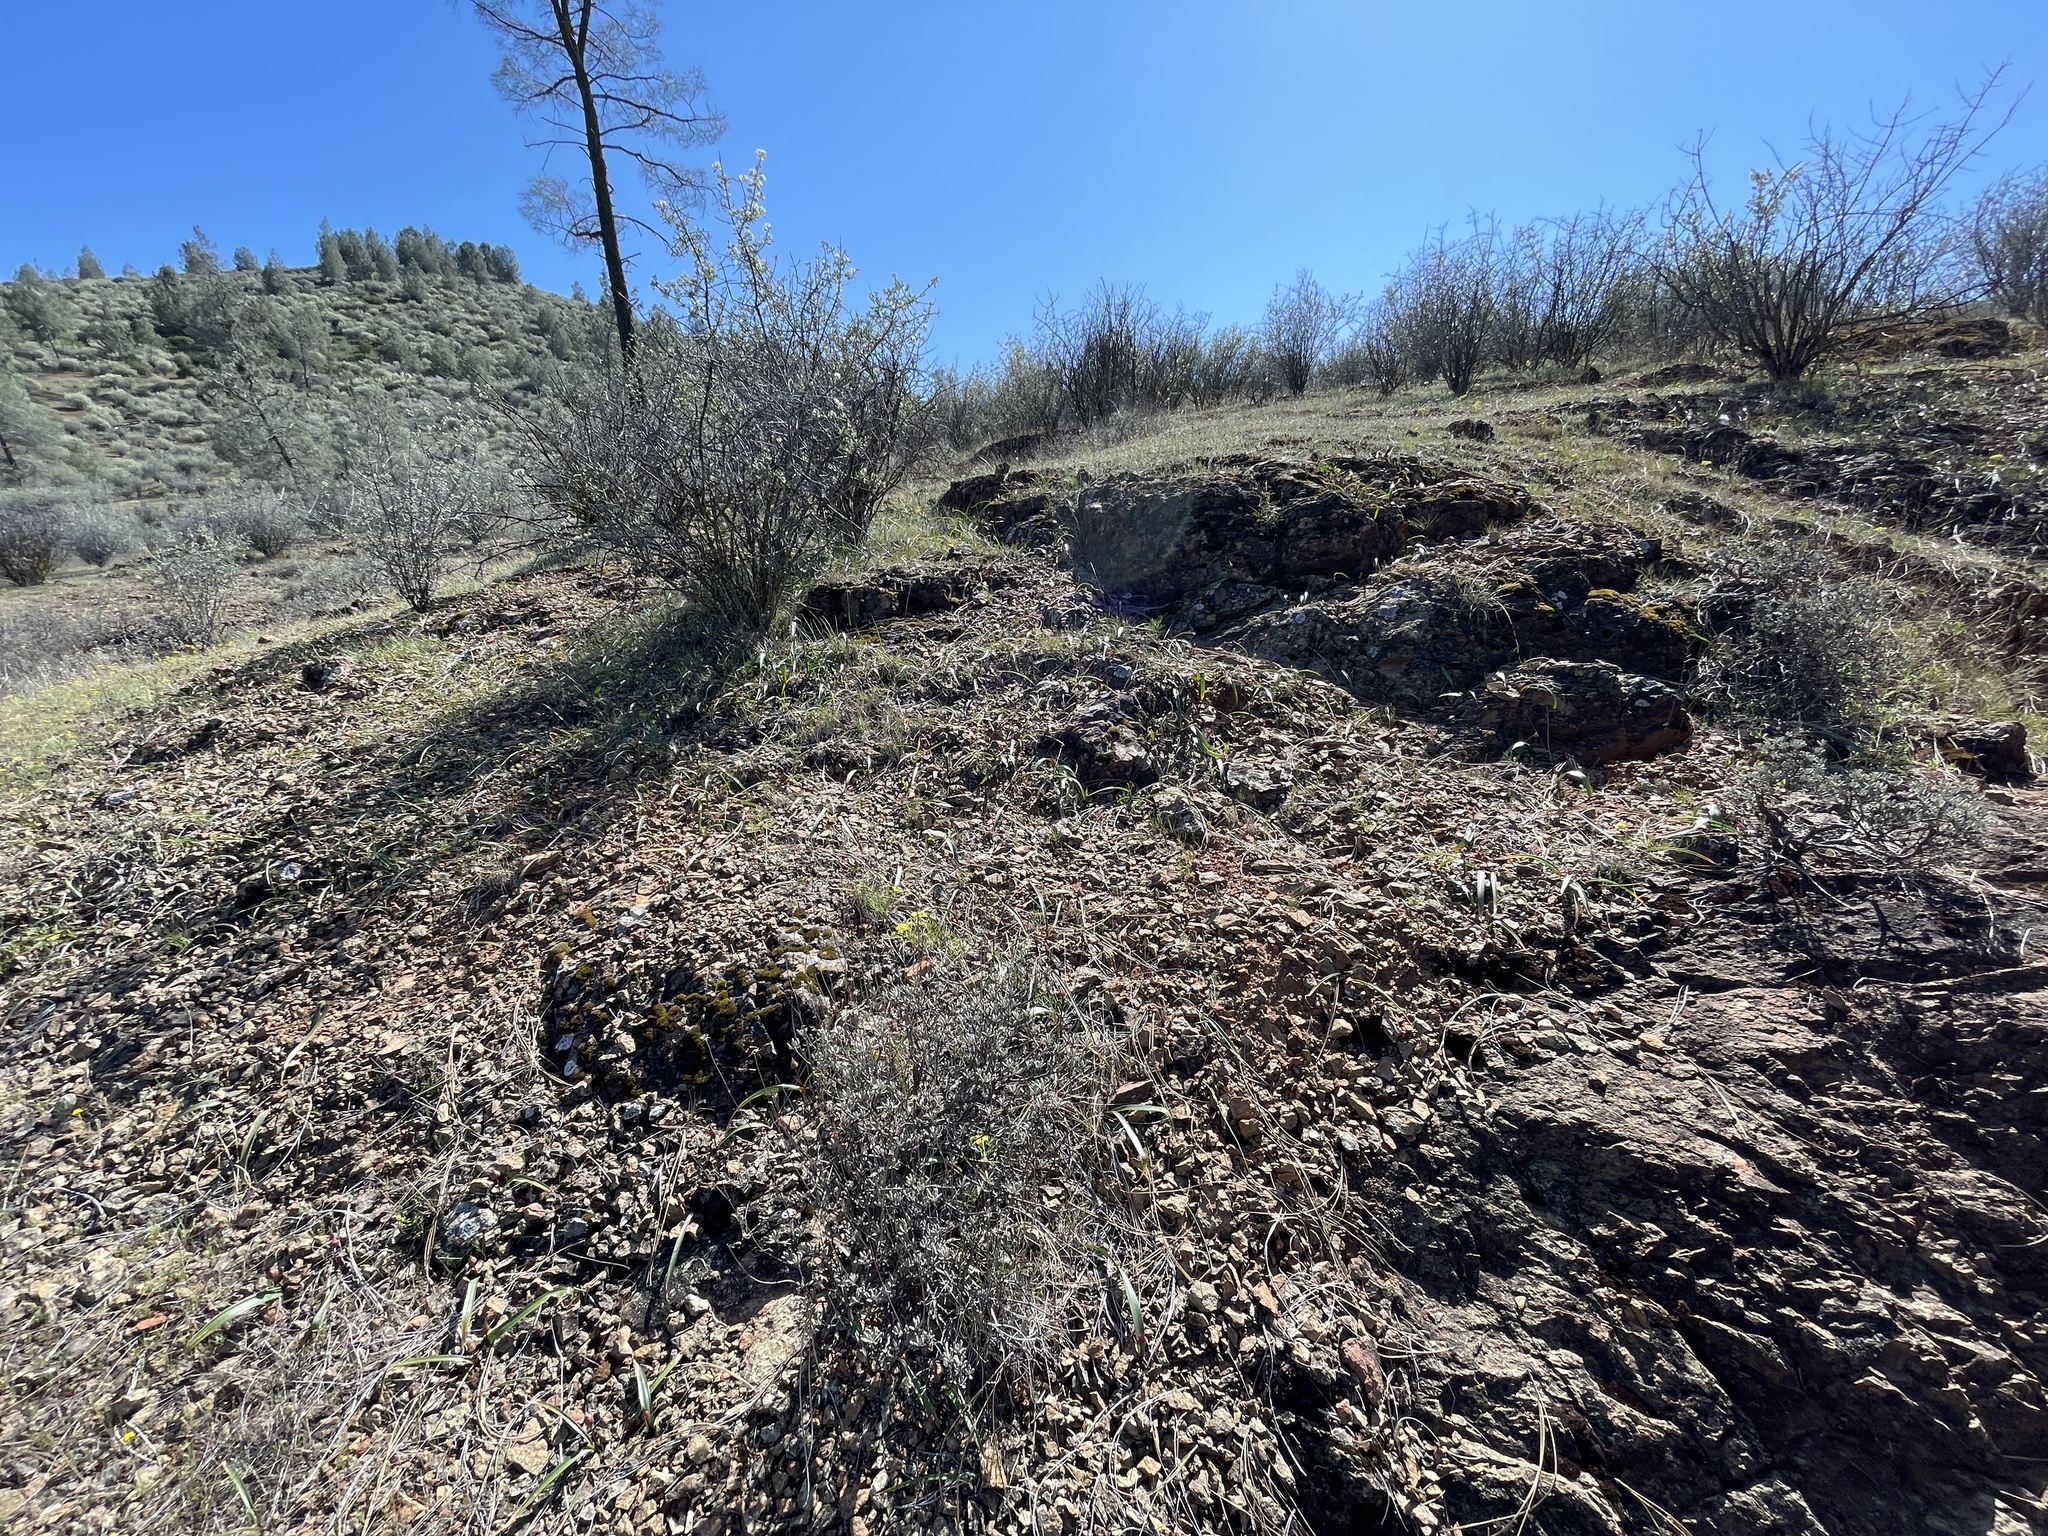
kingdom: Plantae
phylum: Tracheophyta
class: Liliopsida
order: Asparagales
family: Amaryllidaceae
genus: Allium
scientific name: Allium cratericola
